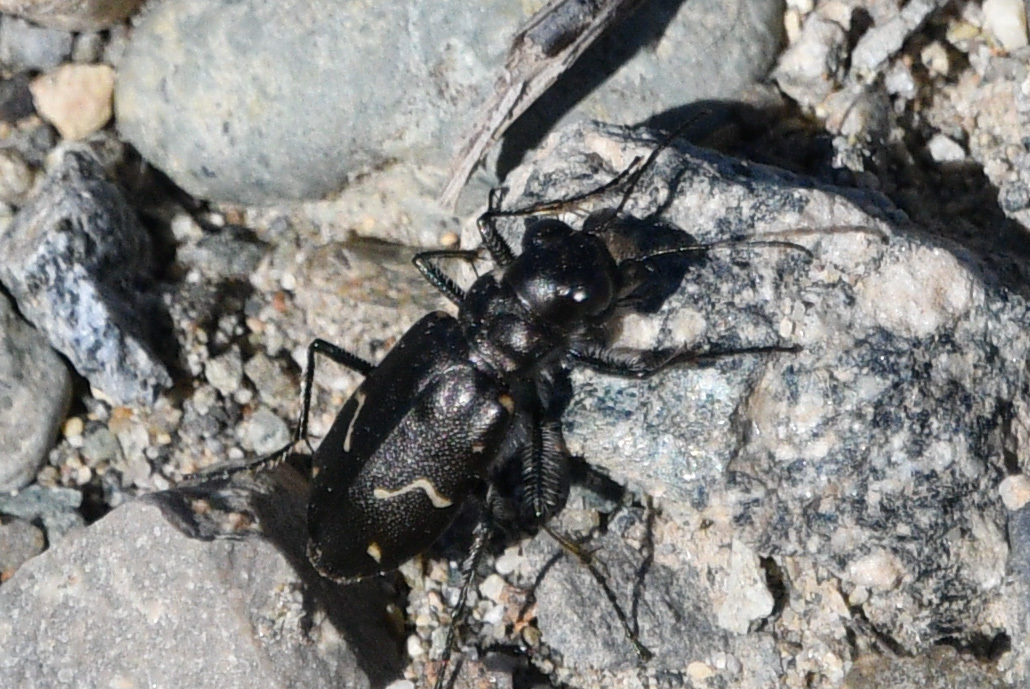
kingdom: Animalia
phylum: Arthropoda
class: Insecta
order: Coleoptera
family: Carabidae
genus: Cicindela
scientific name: Cicindela longilabris
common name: Boreal long-lipped tiger beetle
